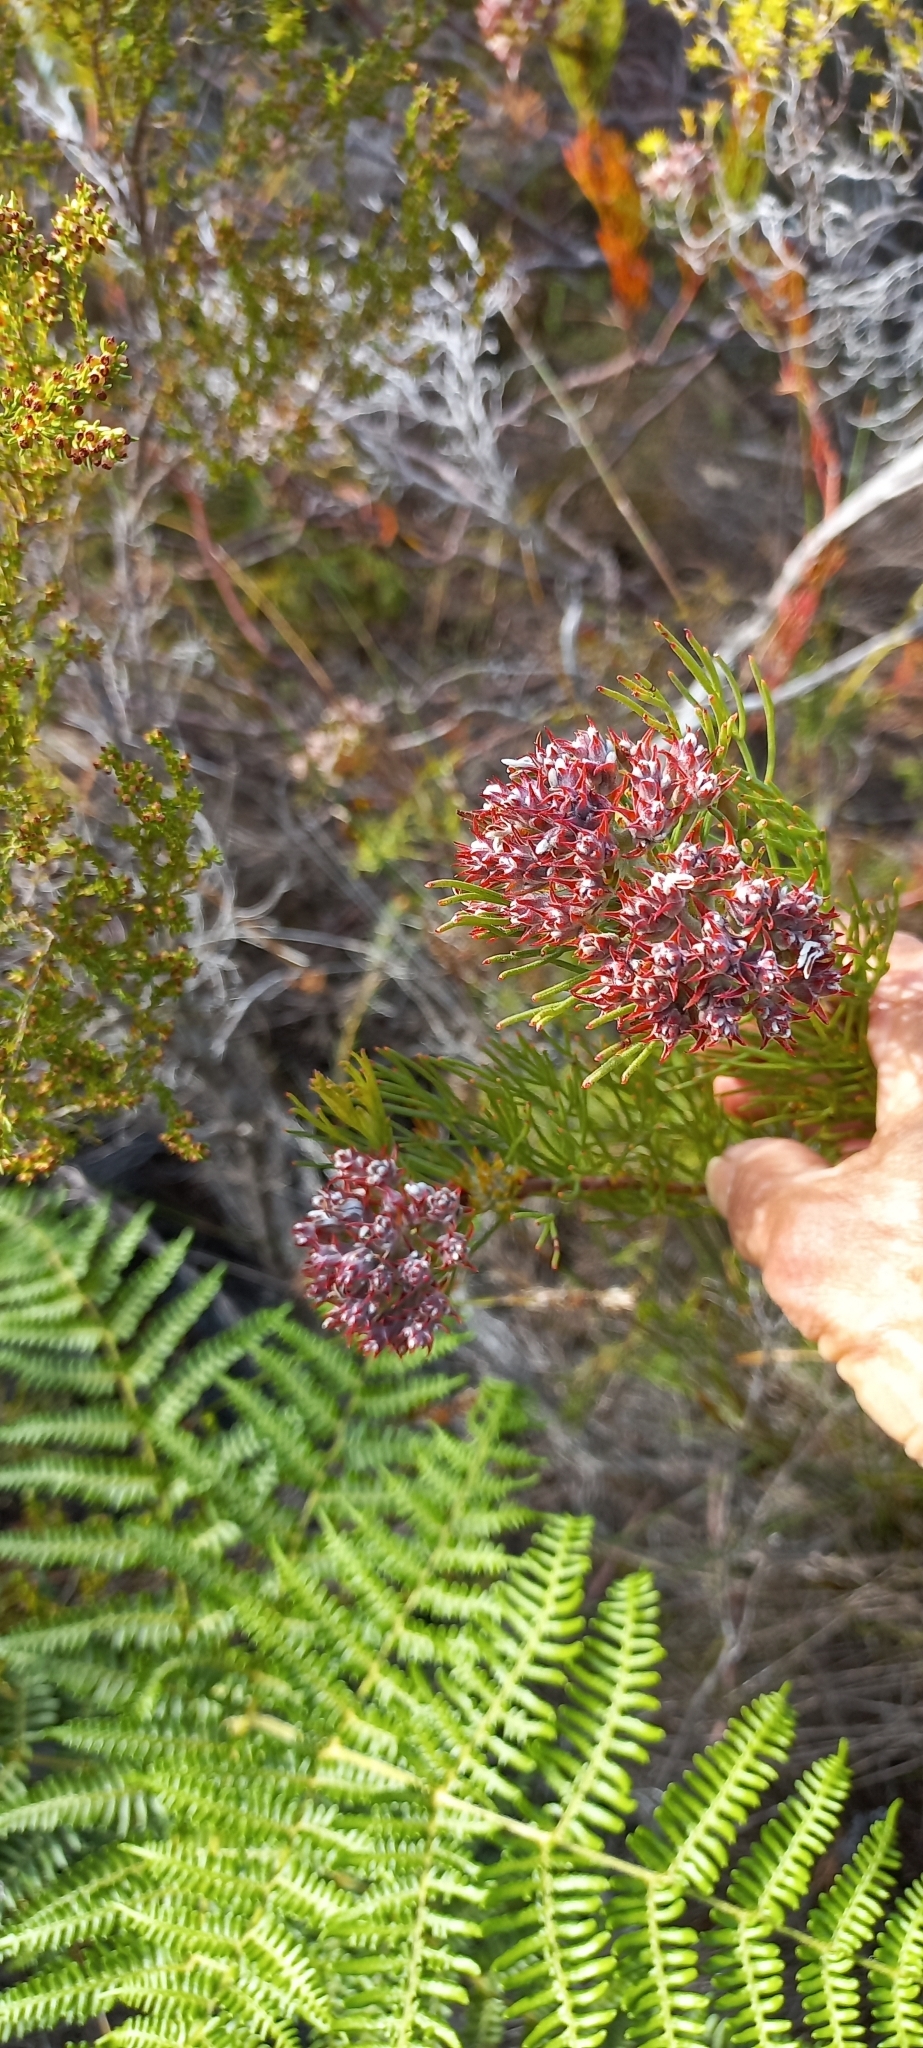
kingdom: Plantae
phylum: Tracheophyta
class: Magnoliopsida
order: Proteales
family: Proteaceae
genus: Serruria
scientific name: Serruria ascendens
